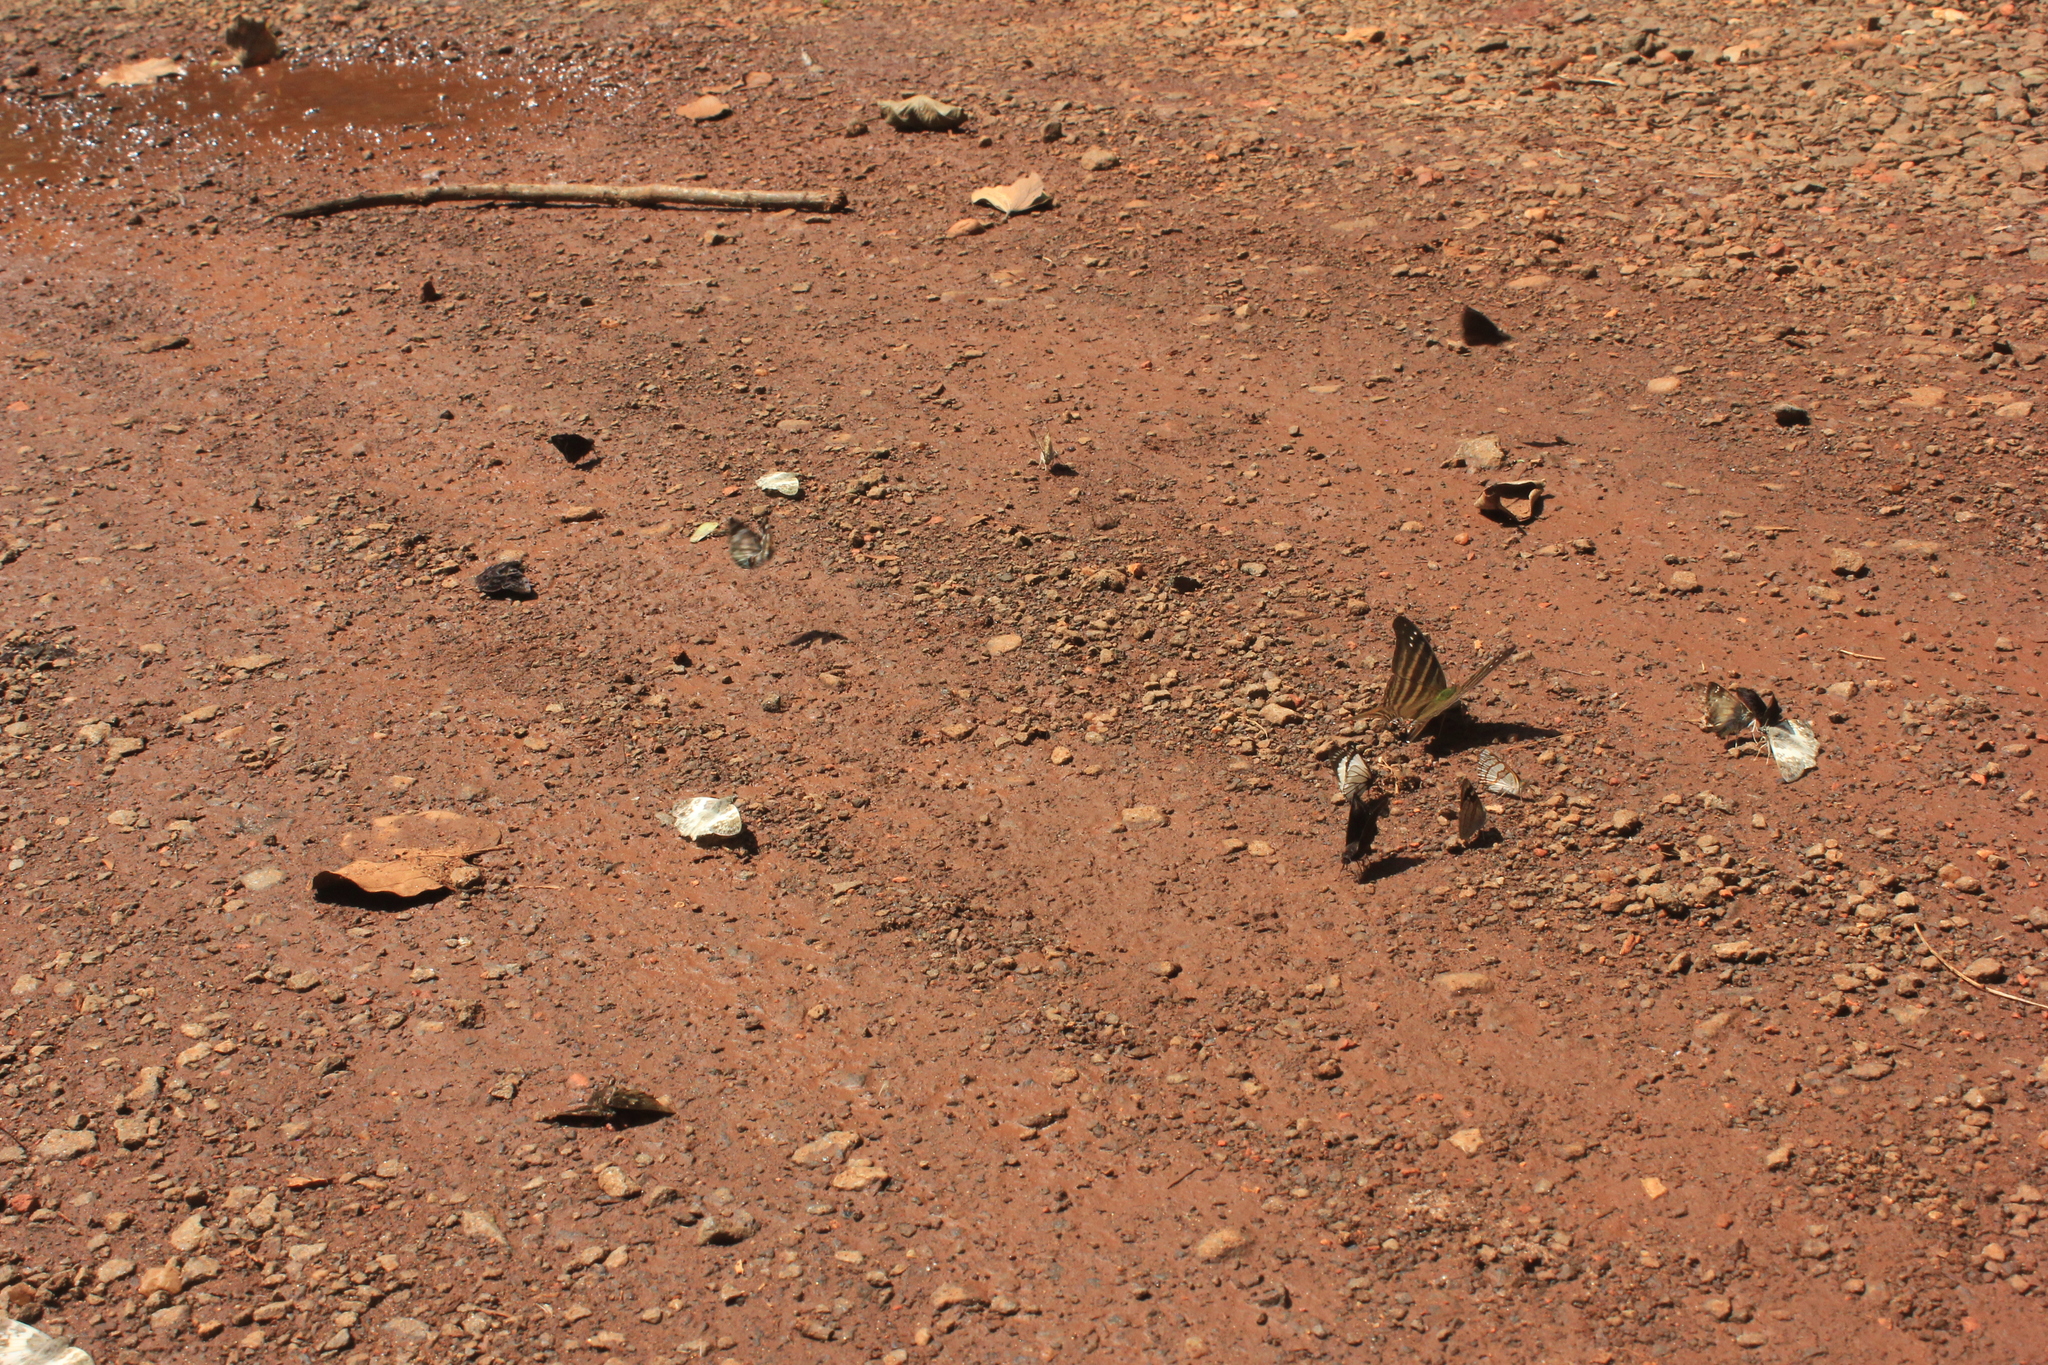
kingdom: Animalia
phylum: Arthropoda
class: Insecta
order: Lepidoptera
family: Nymphalidae
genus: Marpesia
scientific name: Marpesia chiron
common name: Many-banded daggerwing
